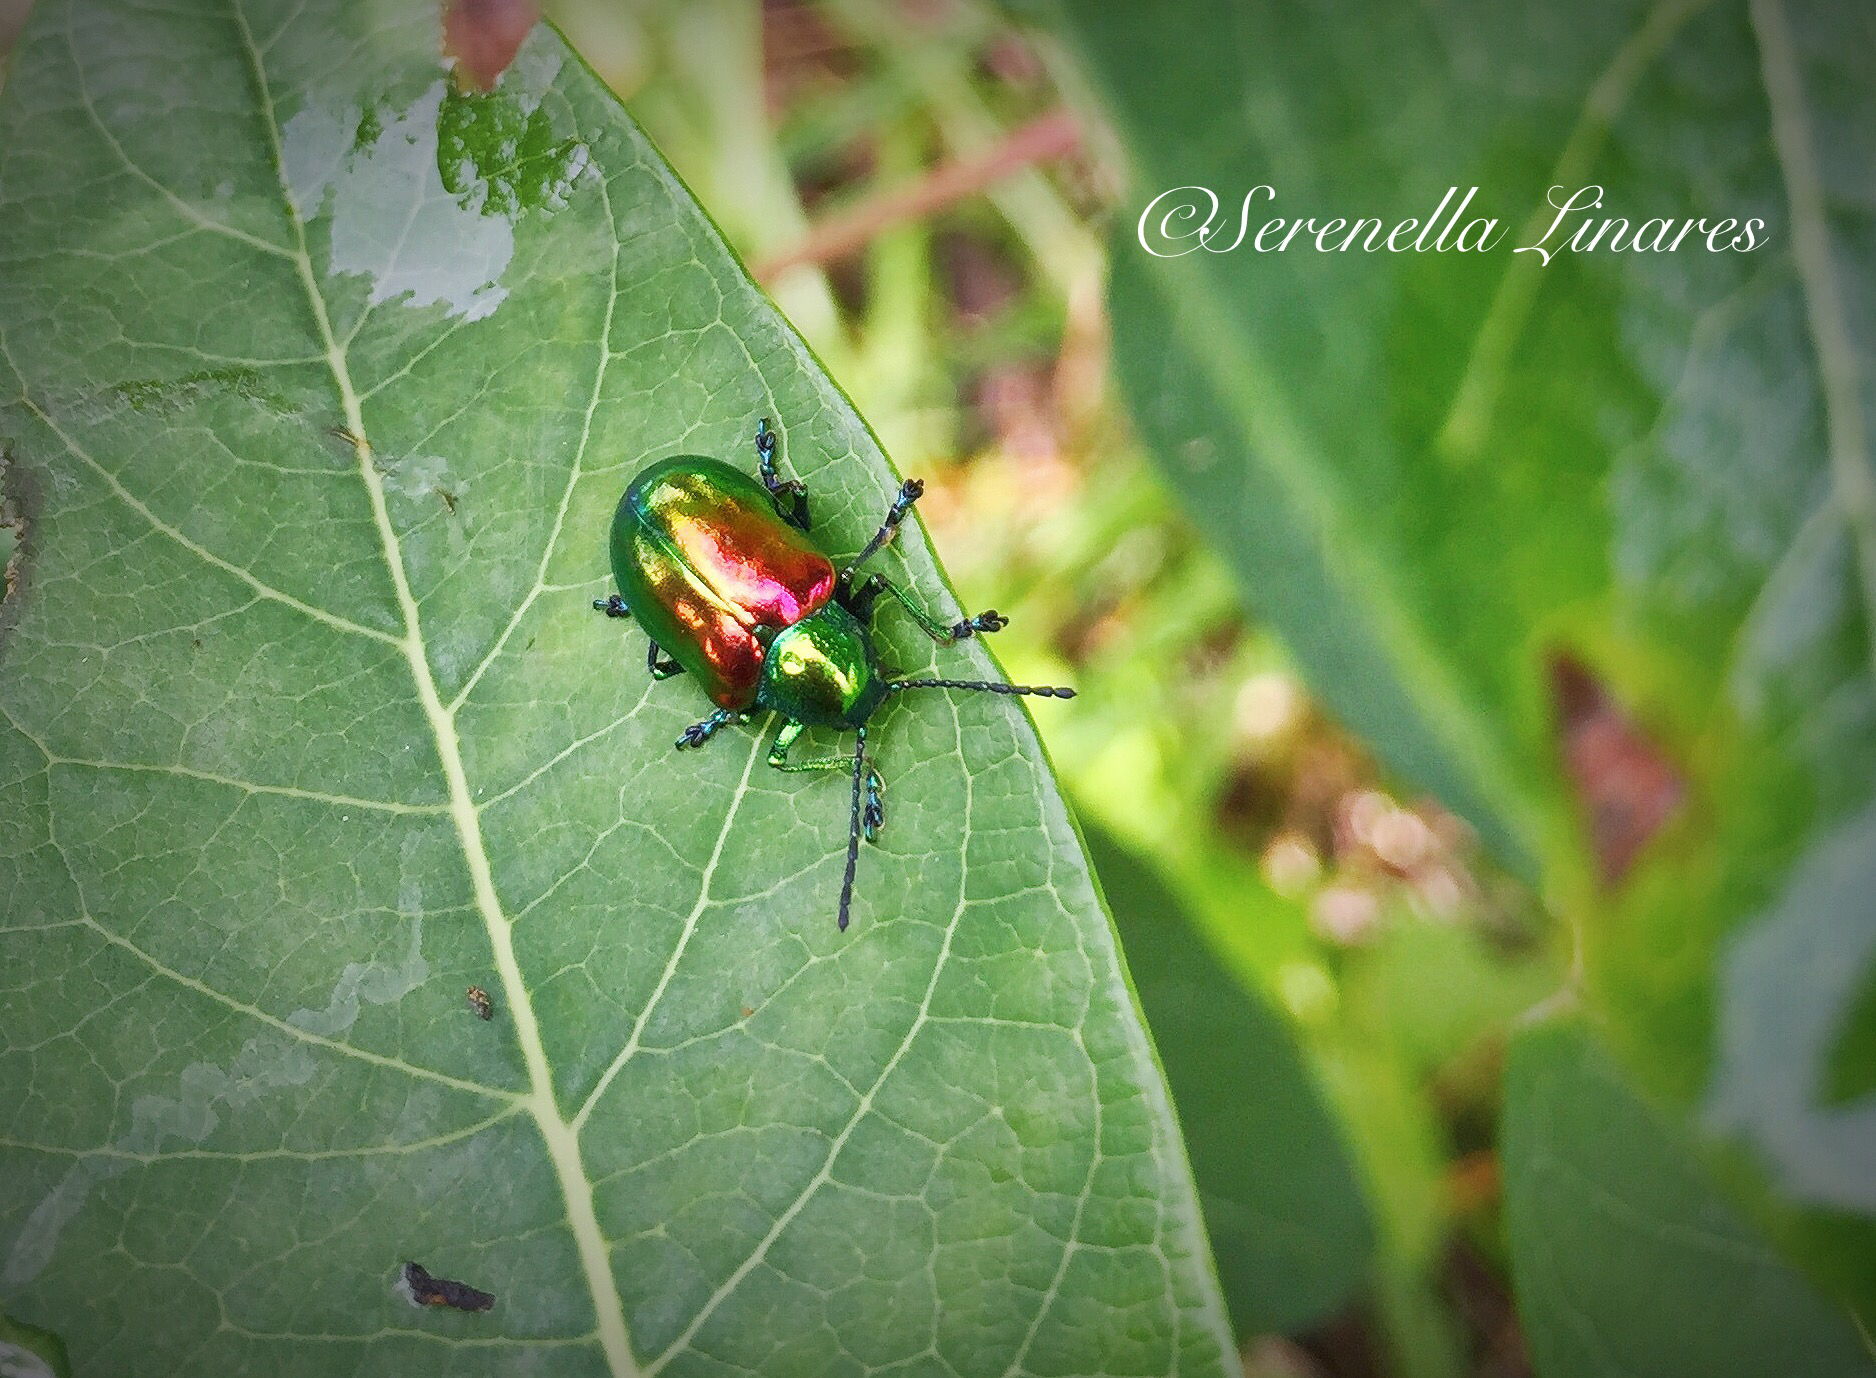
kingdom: Animalia
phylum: Arthropoda
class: Insecta
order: Coleoptera
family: Chrysomelidae
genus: Chrysochus
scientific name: Chrysochus auratus
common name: Dogbane leaf beetle
